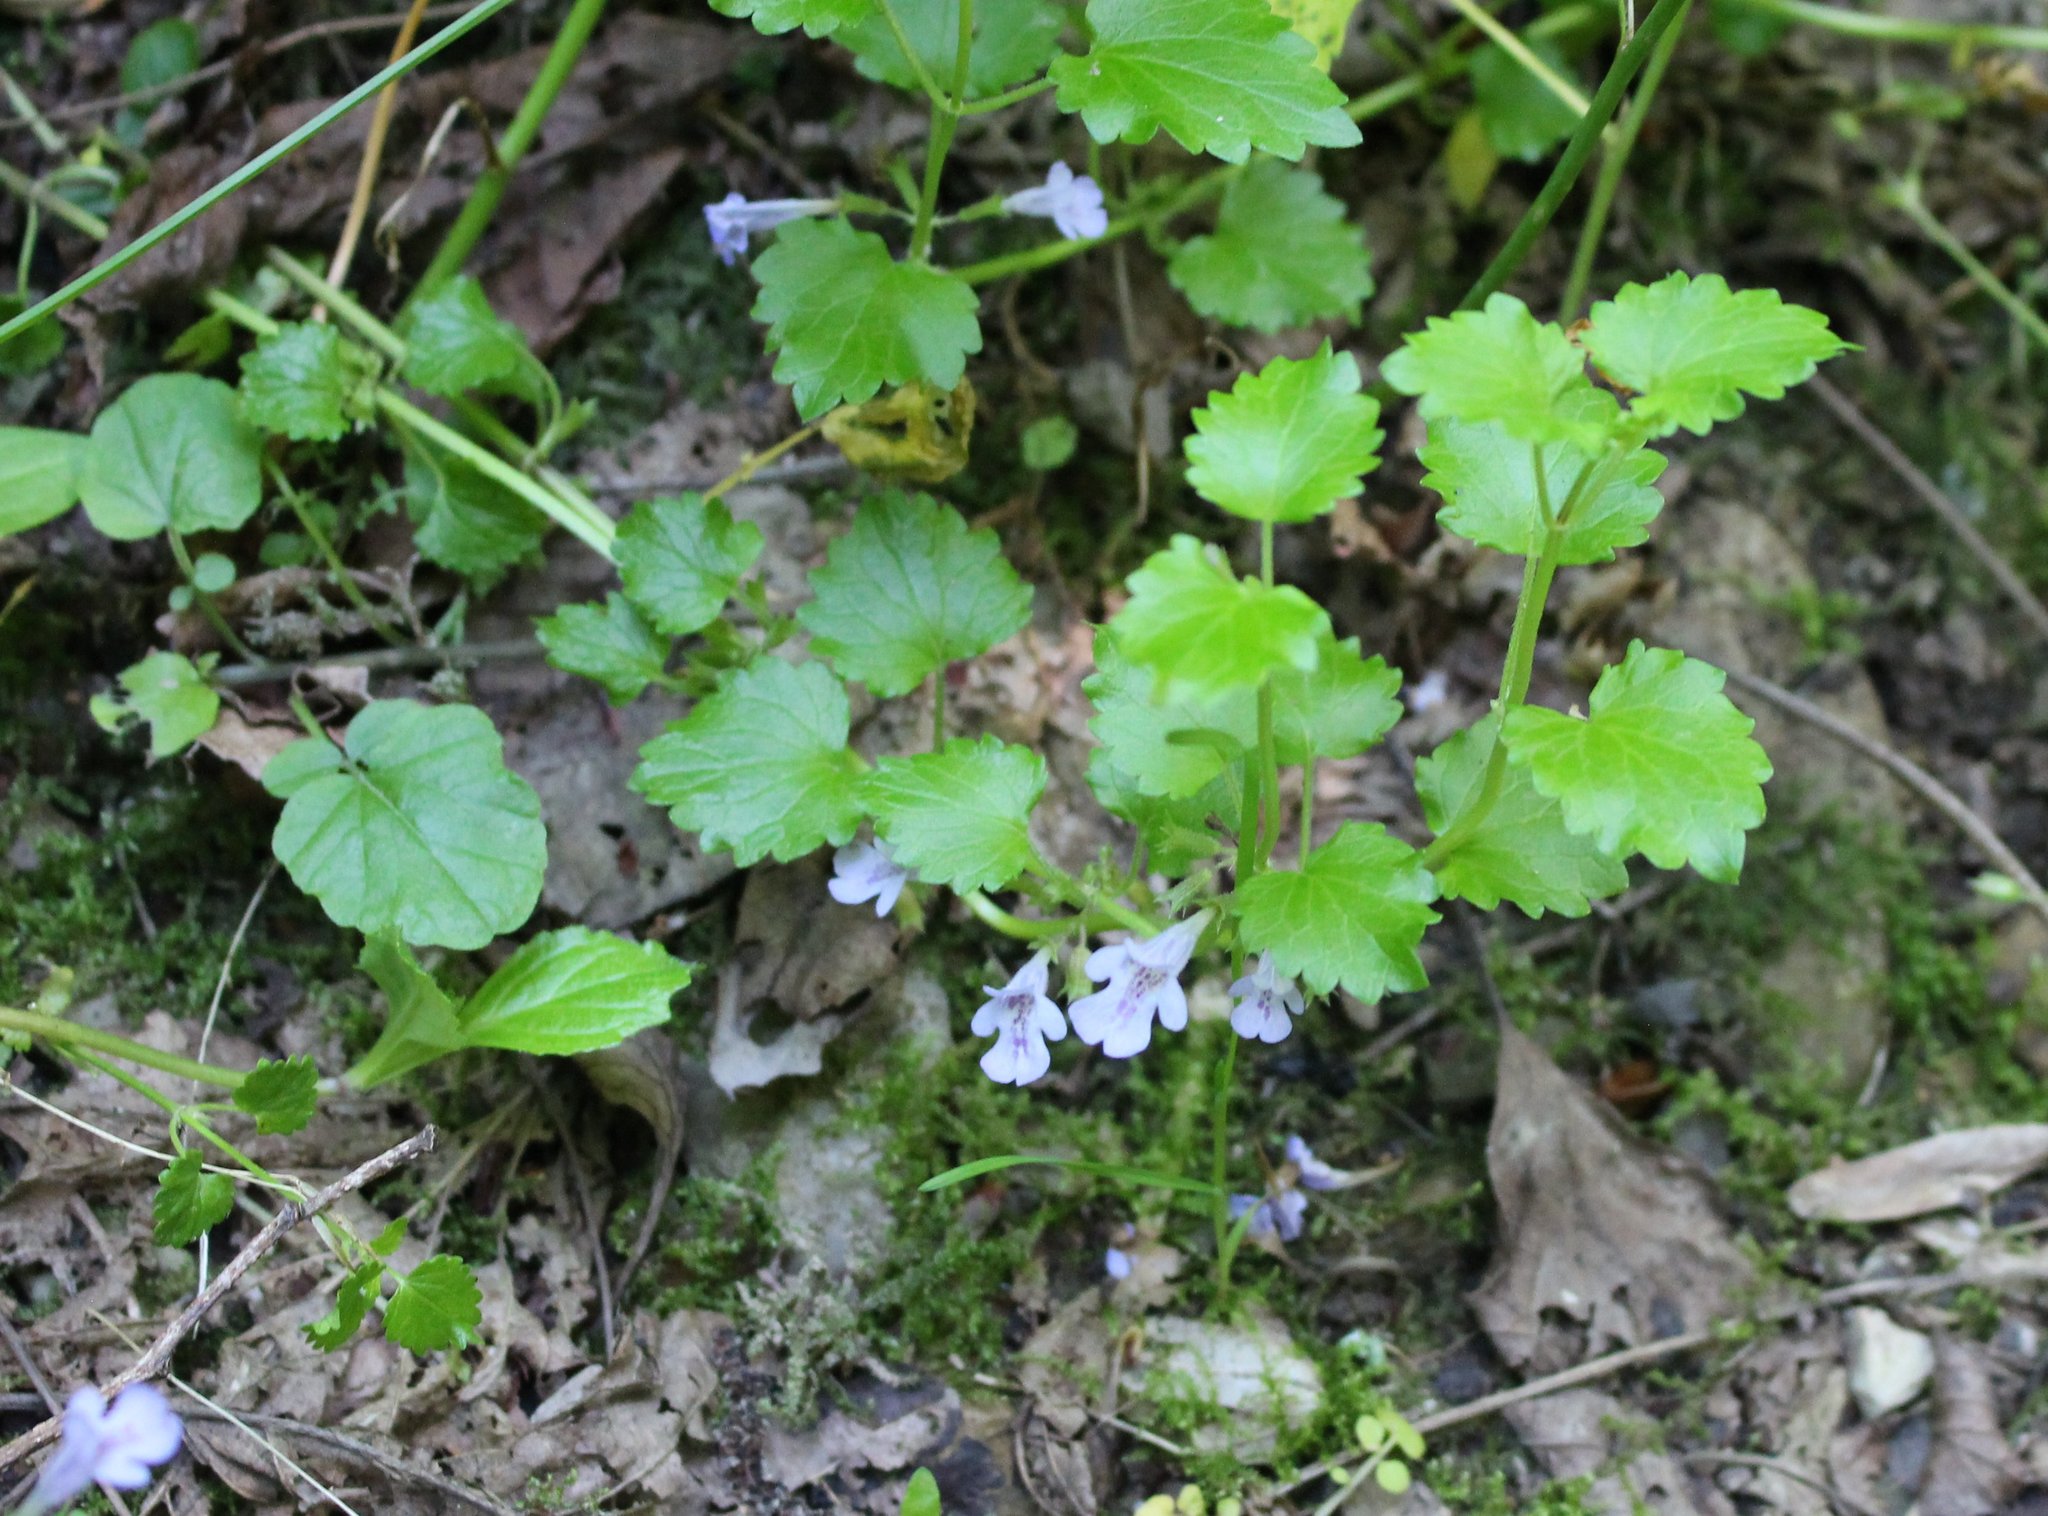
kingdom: Plantae
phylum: Tracheophyta
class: Magnoliopsida
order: Lamiales
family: Lamiaceae
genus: Glechoma
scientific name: Glechoma hederacea
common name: Ground ivy
